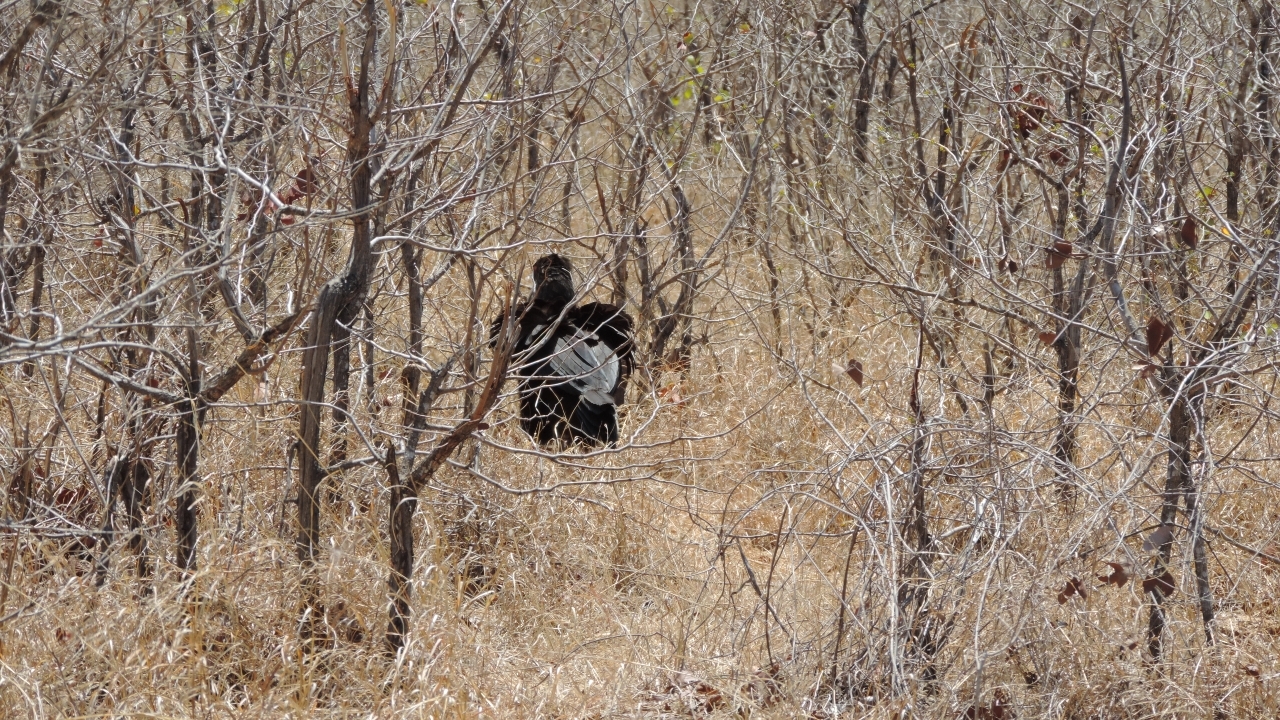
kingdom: Animalia
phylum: Chordata
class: Aves
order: Bucerotiformes
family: Bucorvidae
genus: Bucorvus
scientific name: Bucorvus leadbeateri
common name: Southern ground-hornbill
